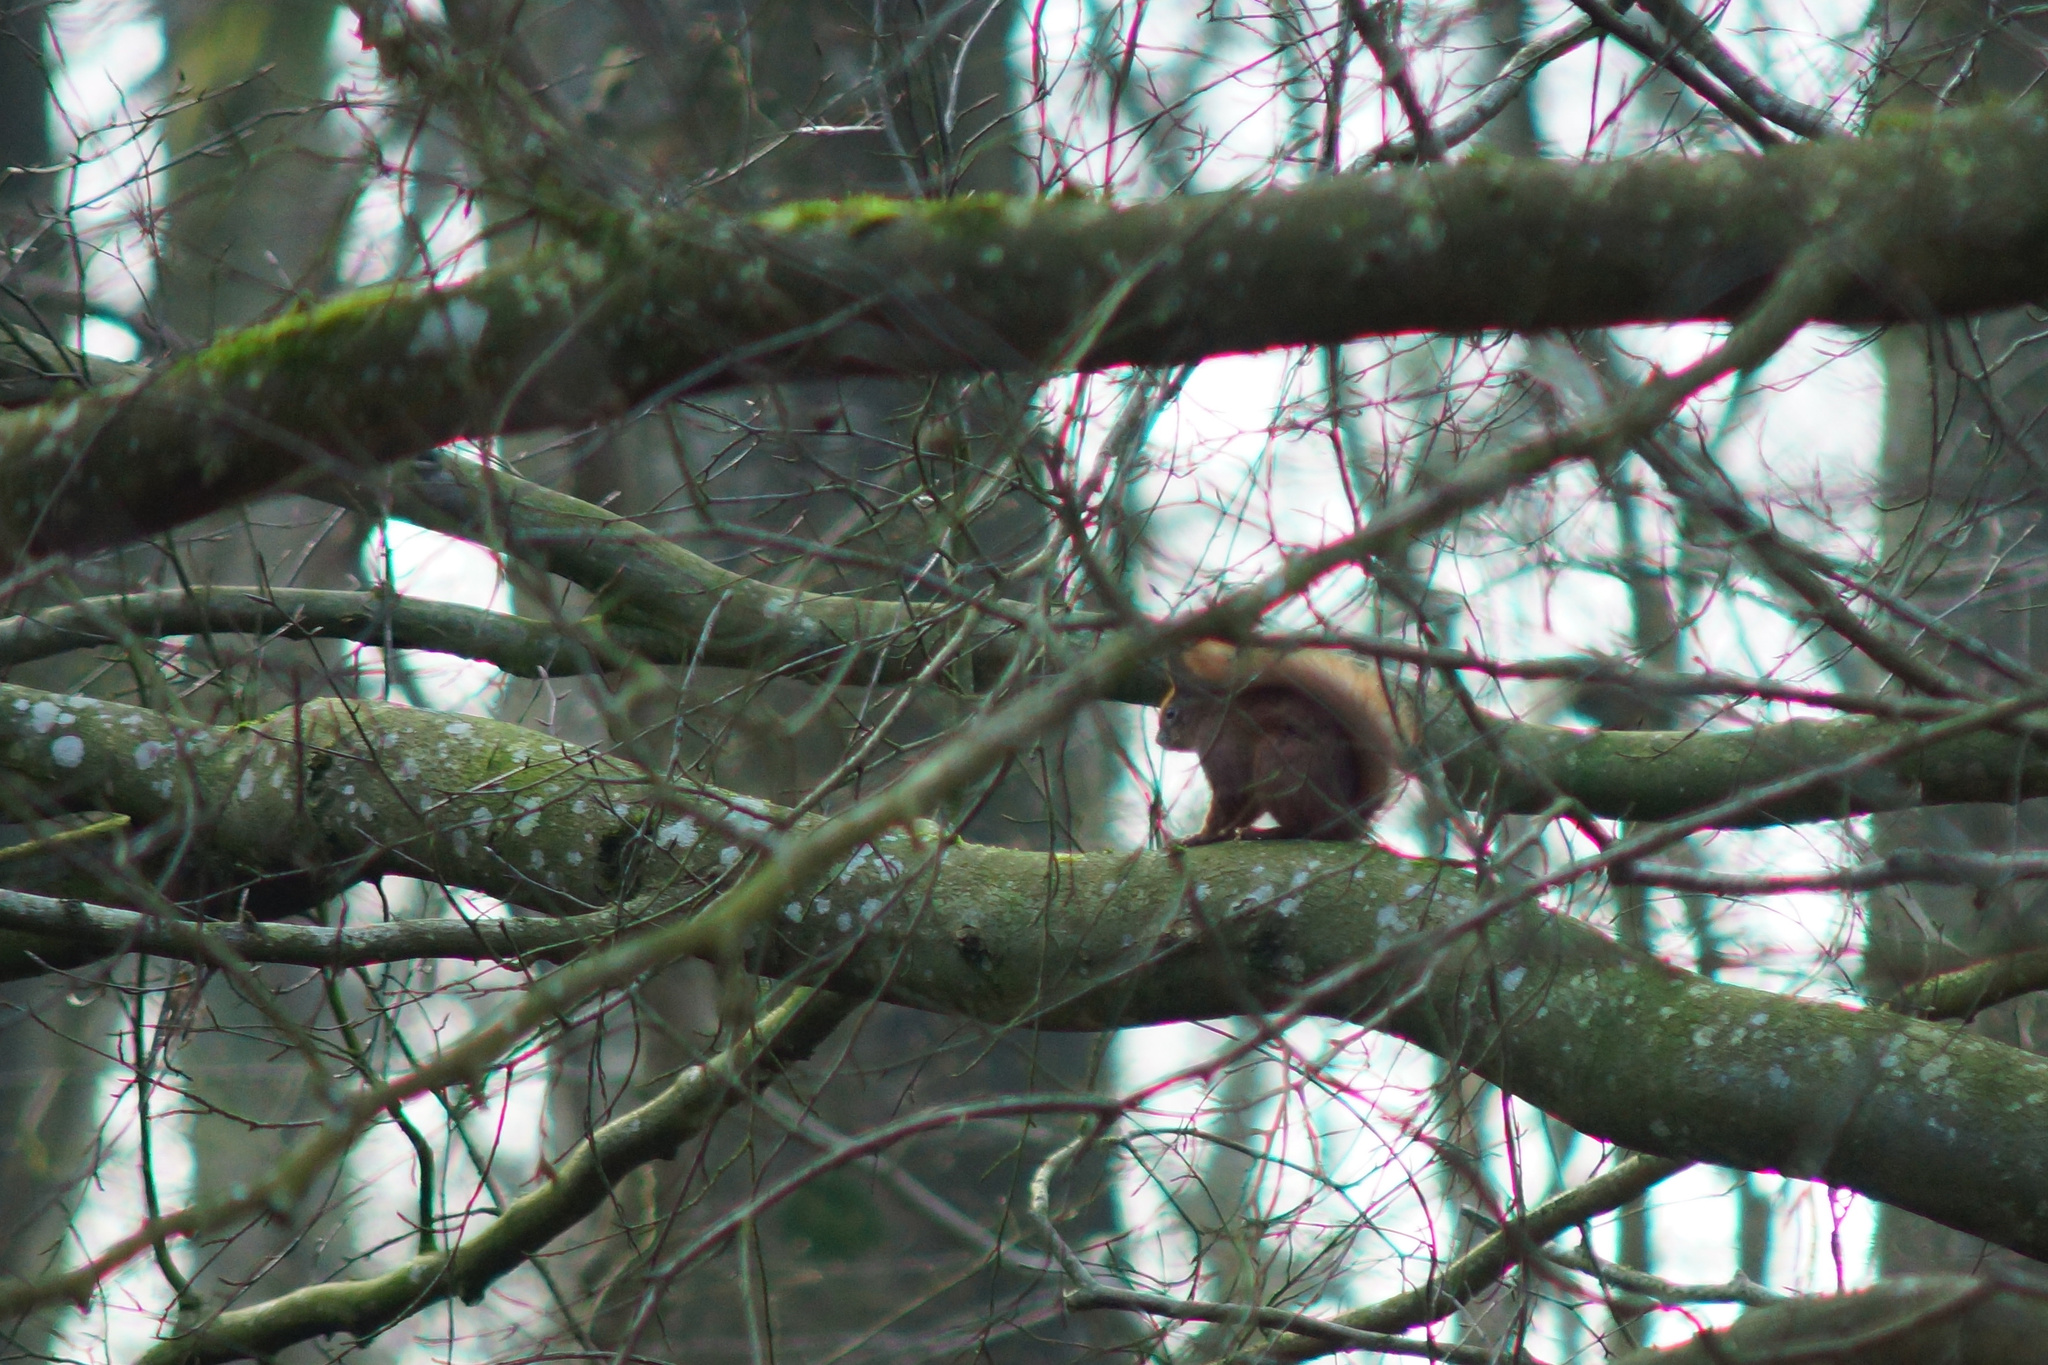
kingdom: Animalia
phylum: Chordata
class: Mammalia
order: Rodentia
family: Sciuridae
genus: Sciurus
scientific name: Sciurus vulgaris
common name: Eurasian red squirrel
